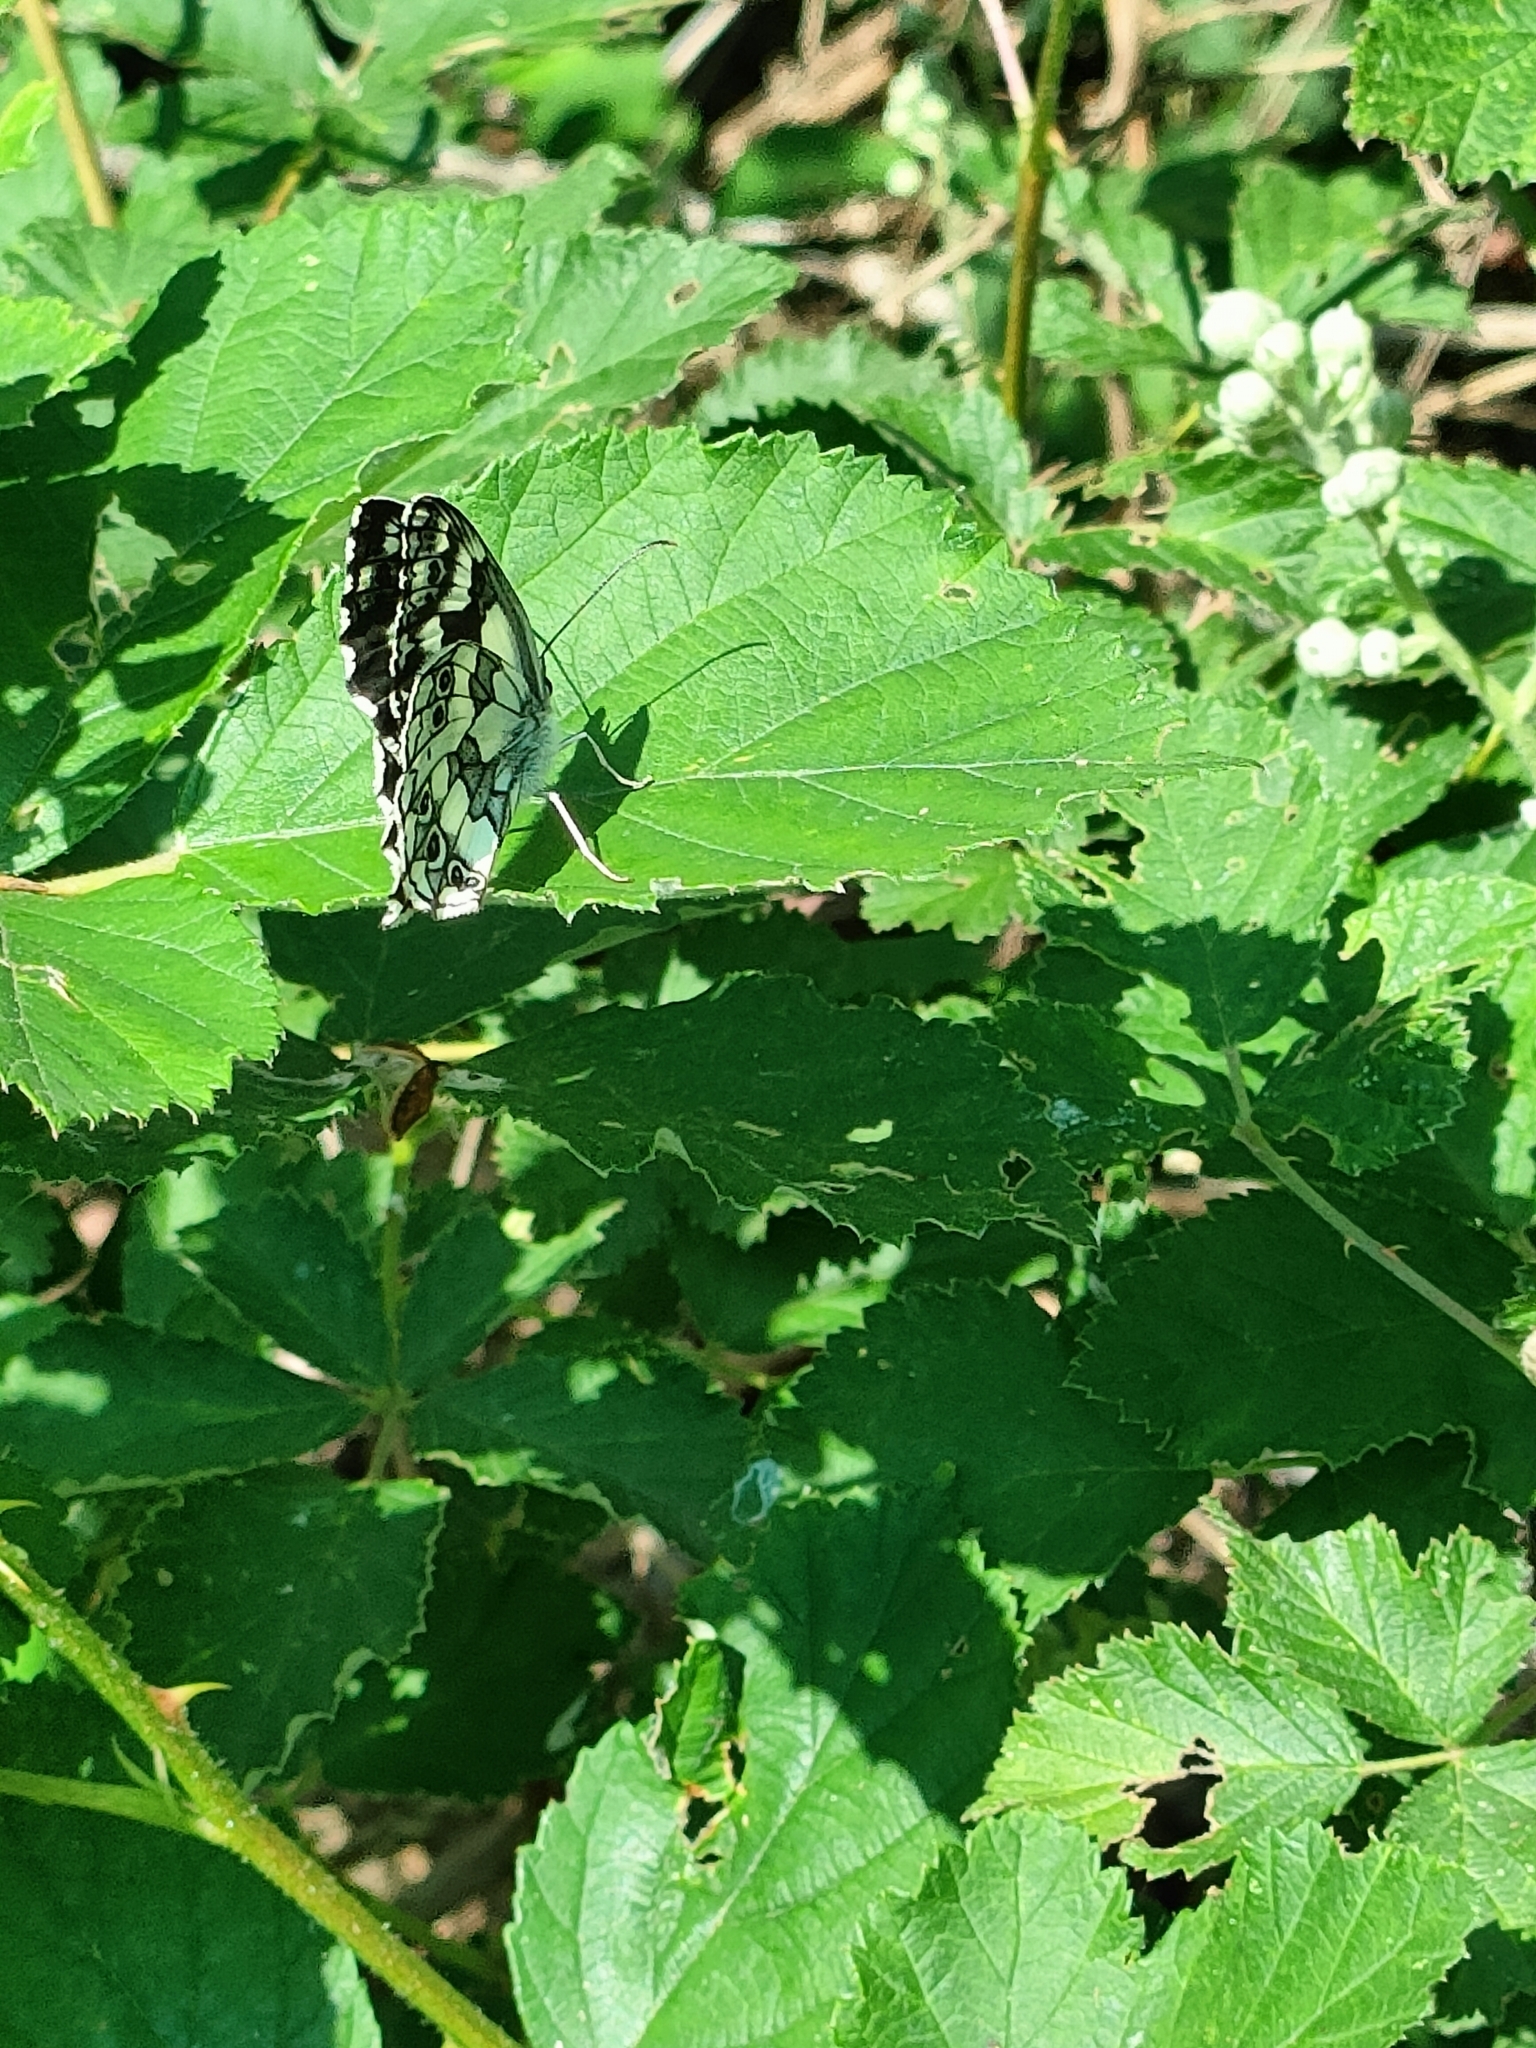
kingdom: Animalia
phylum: Arthropoda
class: Insecta
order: Lepidoptera
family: Nymphalidae
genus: Melanargia
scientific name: Melanargia galathea
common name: Marbled white
